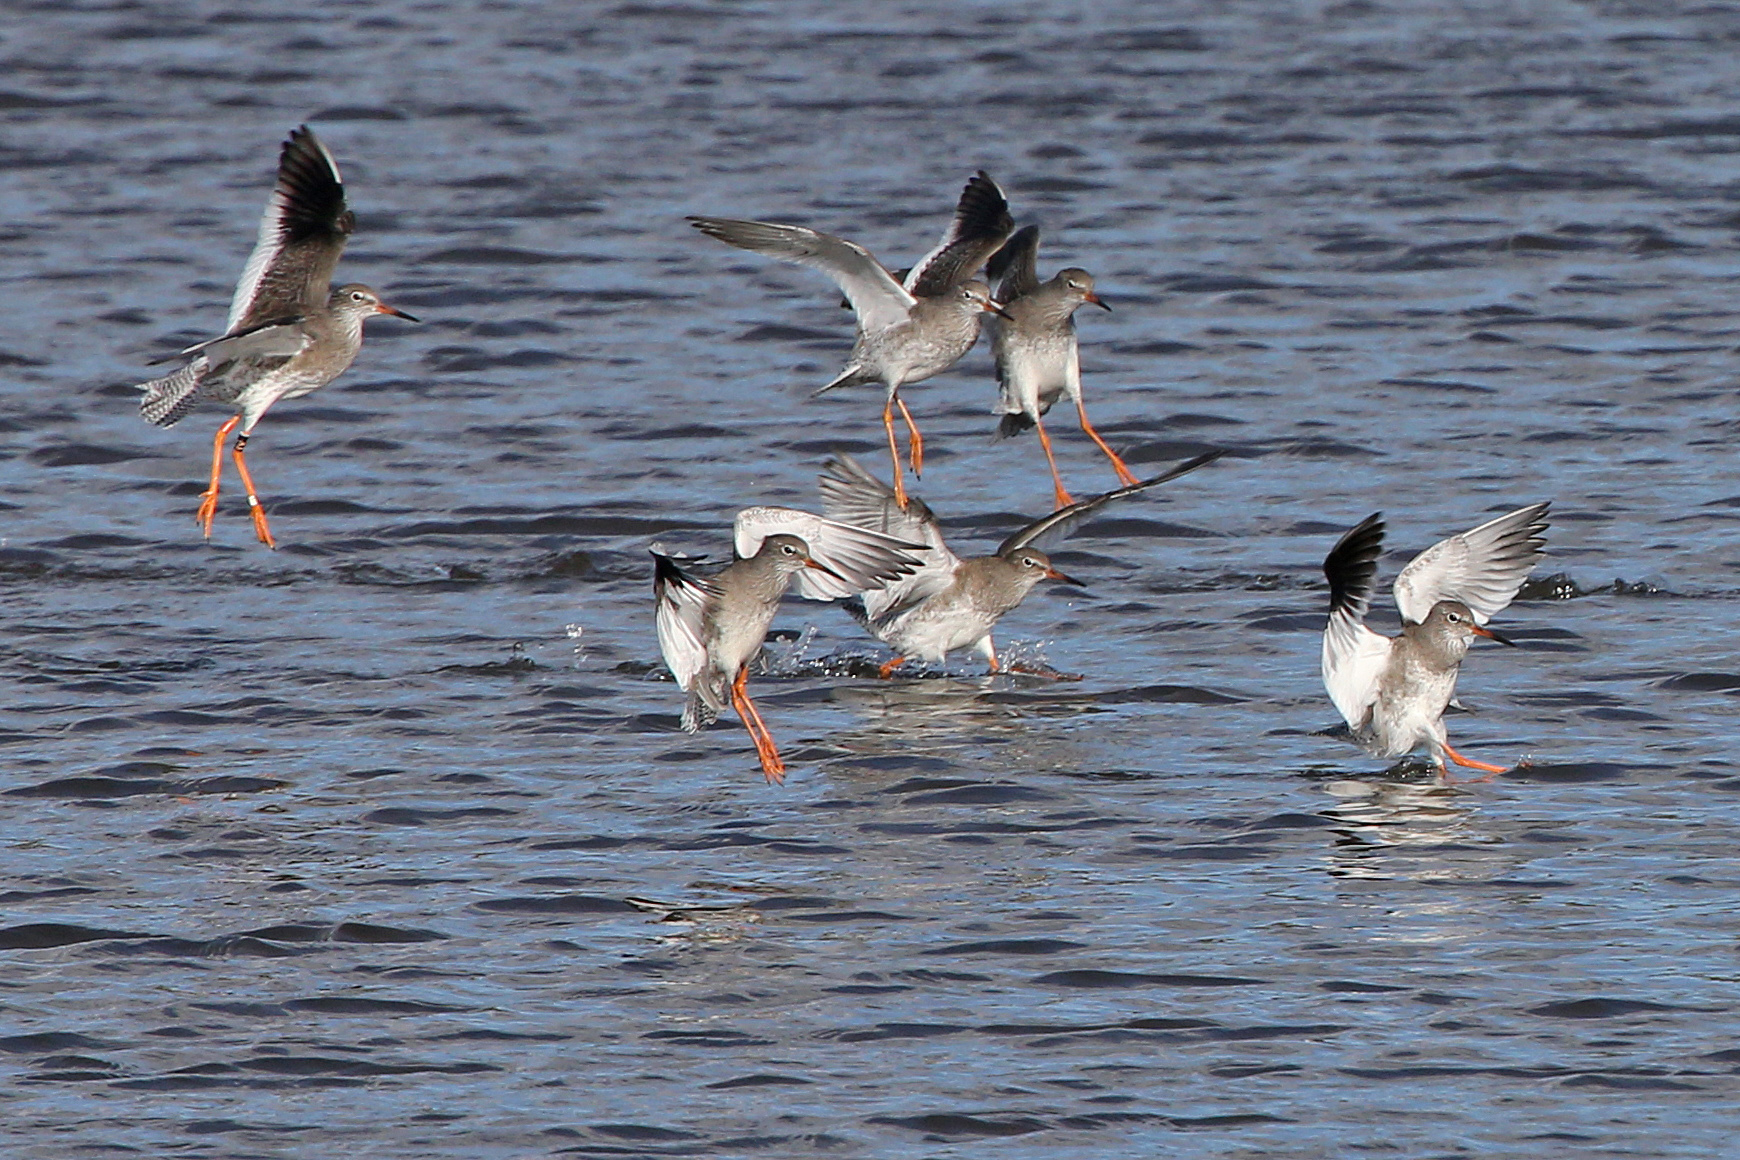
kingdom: Animalia
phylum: Chordata
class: Aves
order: Charadriiformes
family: Scolopacidae
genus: Tringa
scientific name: Tringa totanus
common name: Common redshank
